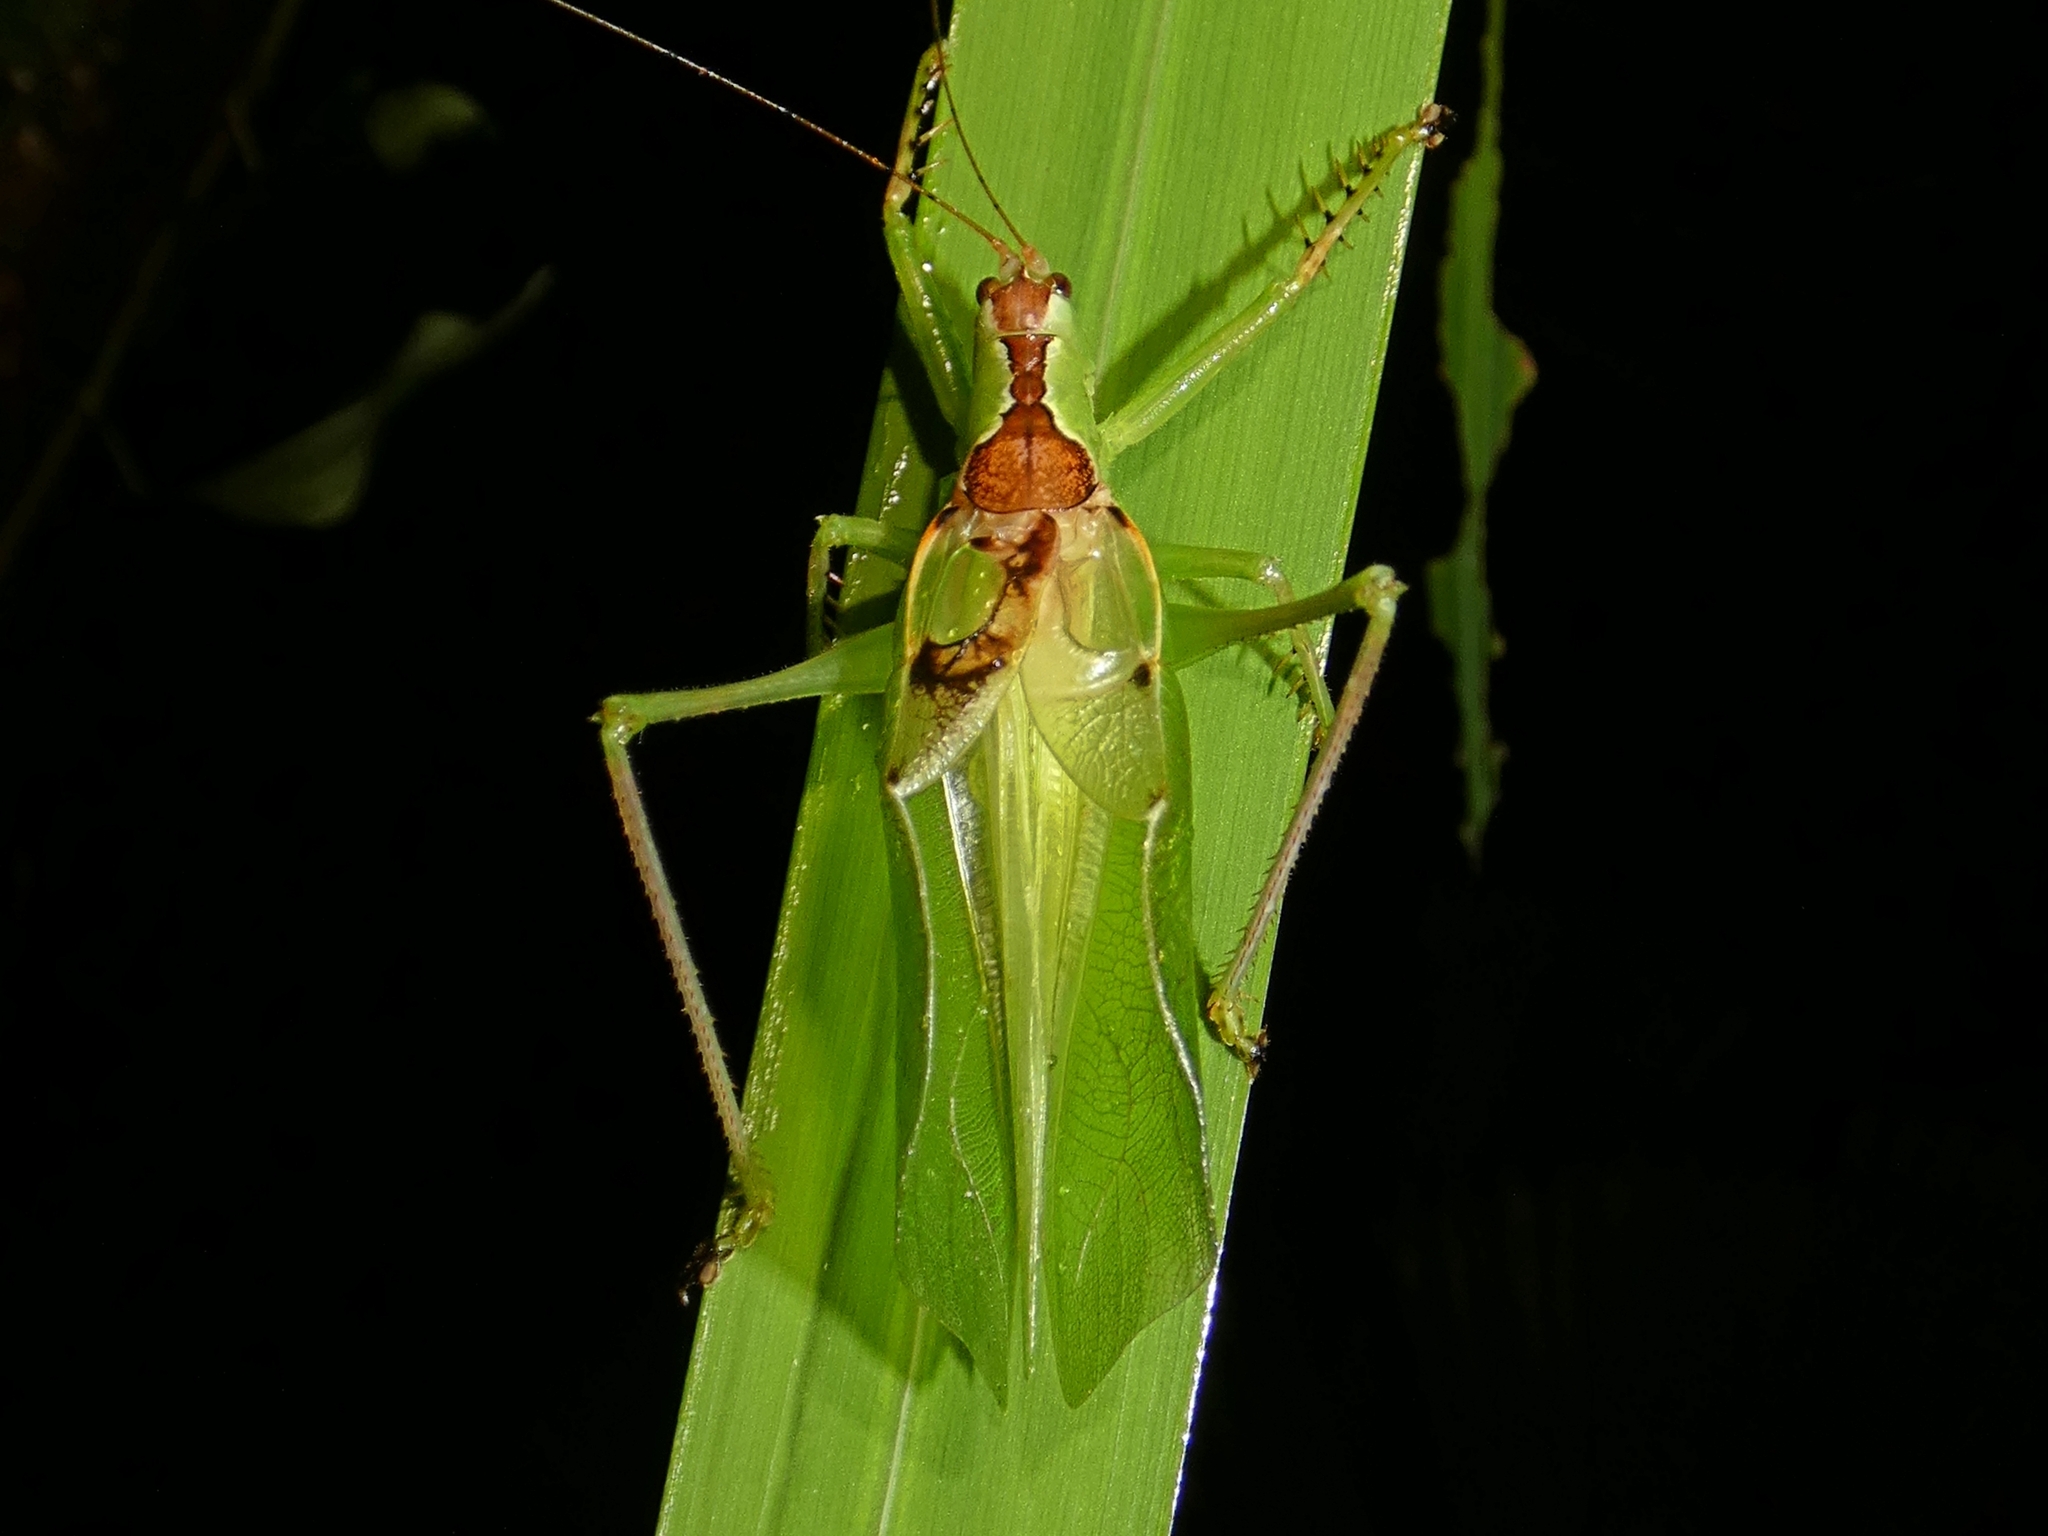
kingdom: Animalia
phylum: Arthropoda
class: Insecta
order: Orthoptera
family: Tettigoniidae
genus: Hexacentrus
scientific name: Hexacentrus mundurra
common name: Mundurra balloon-winged katydid
